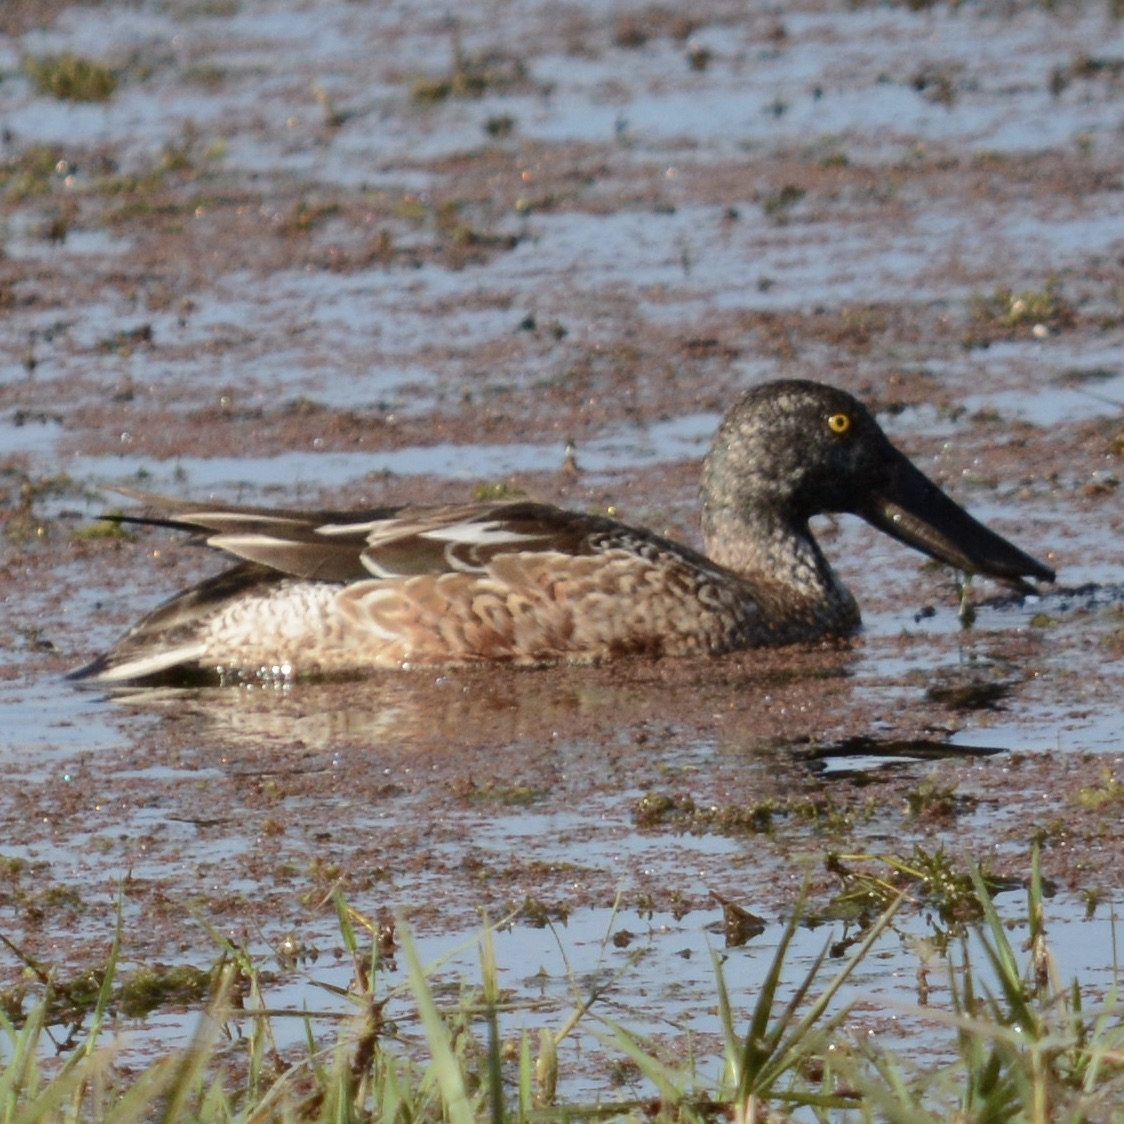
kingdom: Animalia
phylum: Chordata
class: Aves
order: Anseriformes
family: Anatidae
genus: Spatula
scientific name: Spatula clypeata
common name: Northern shoveler
